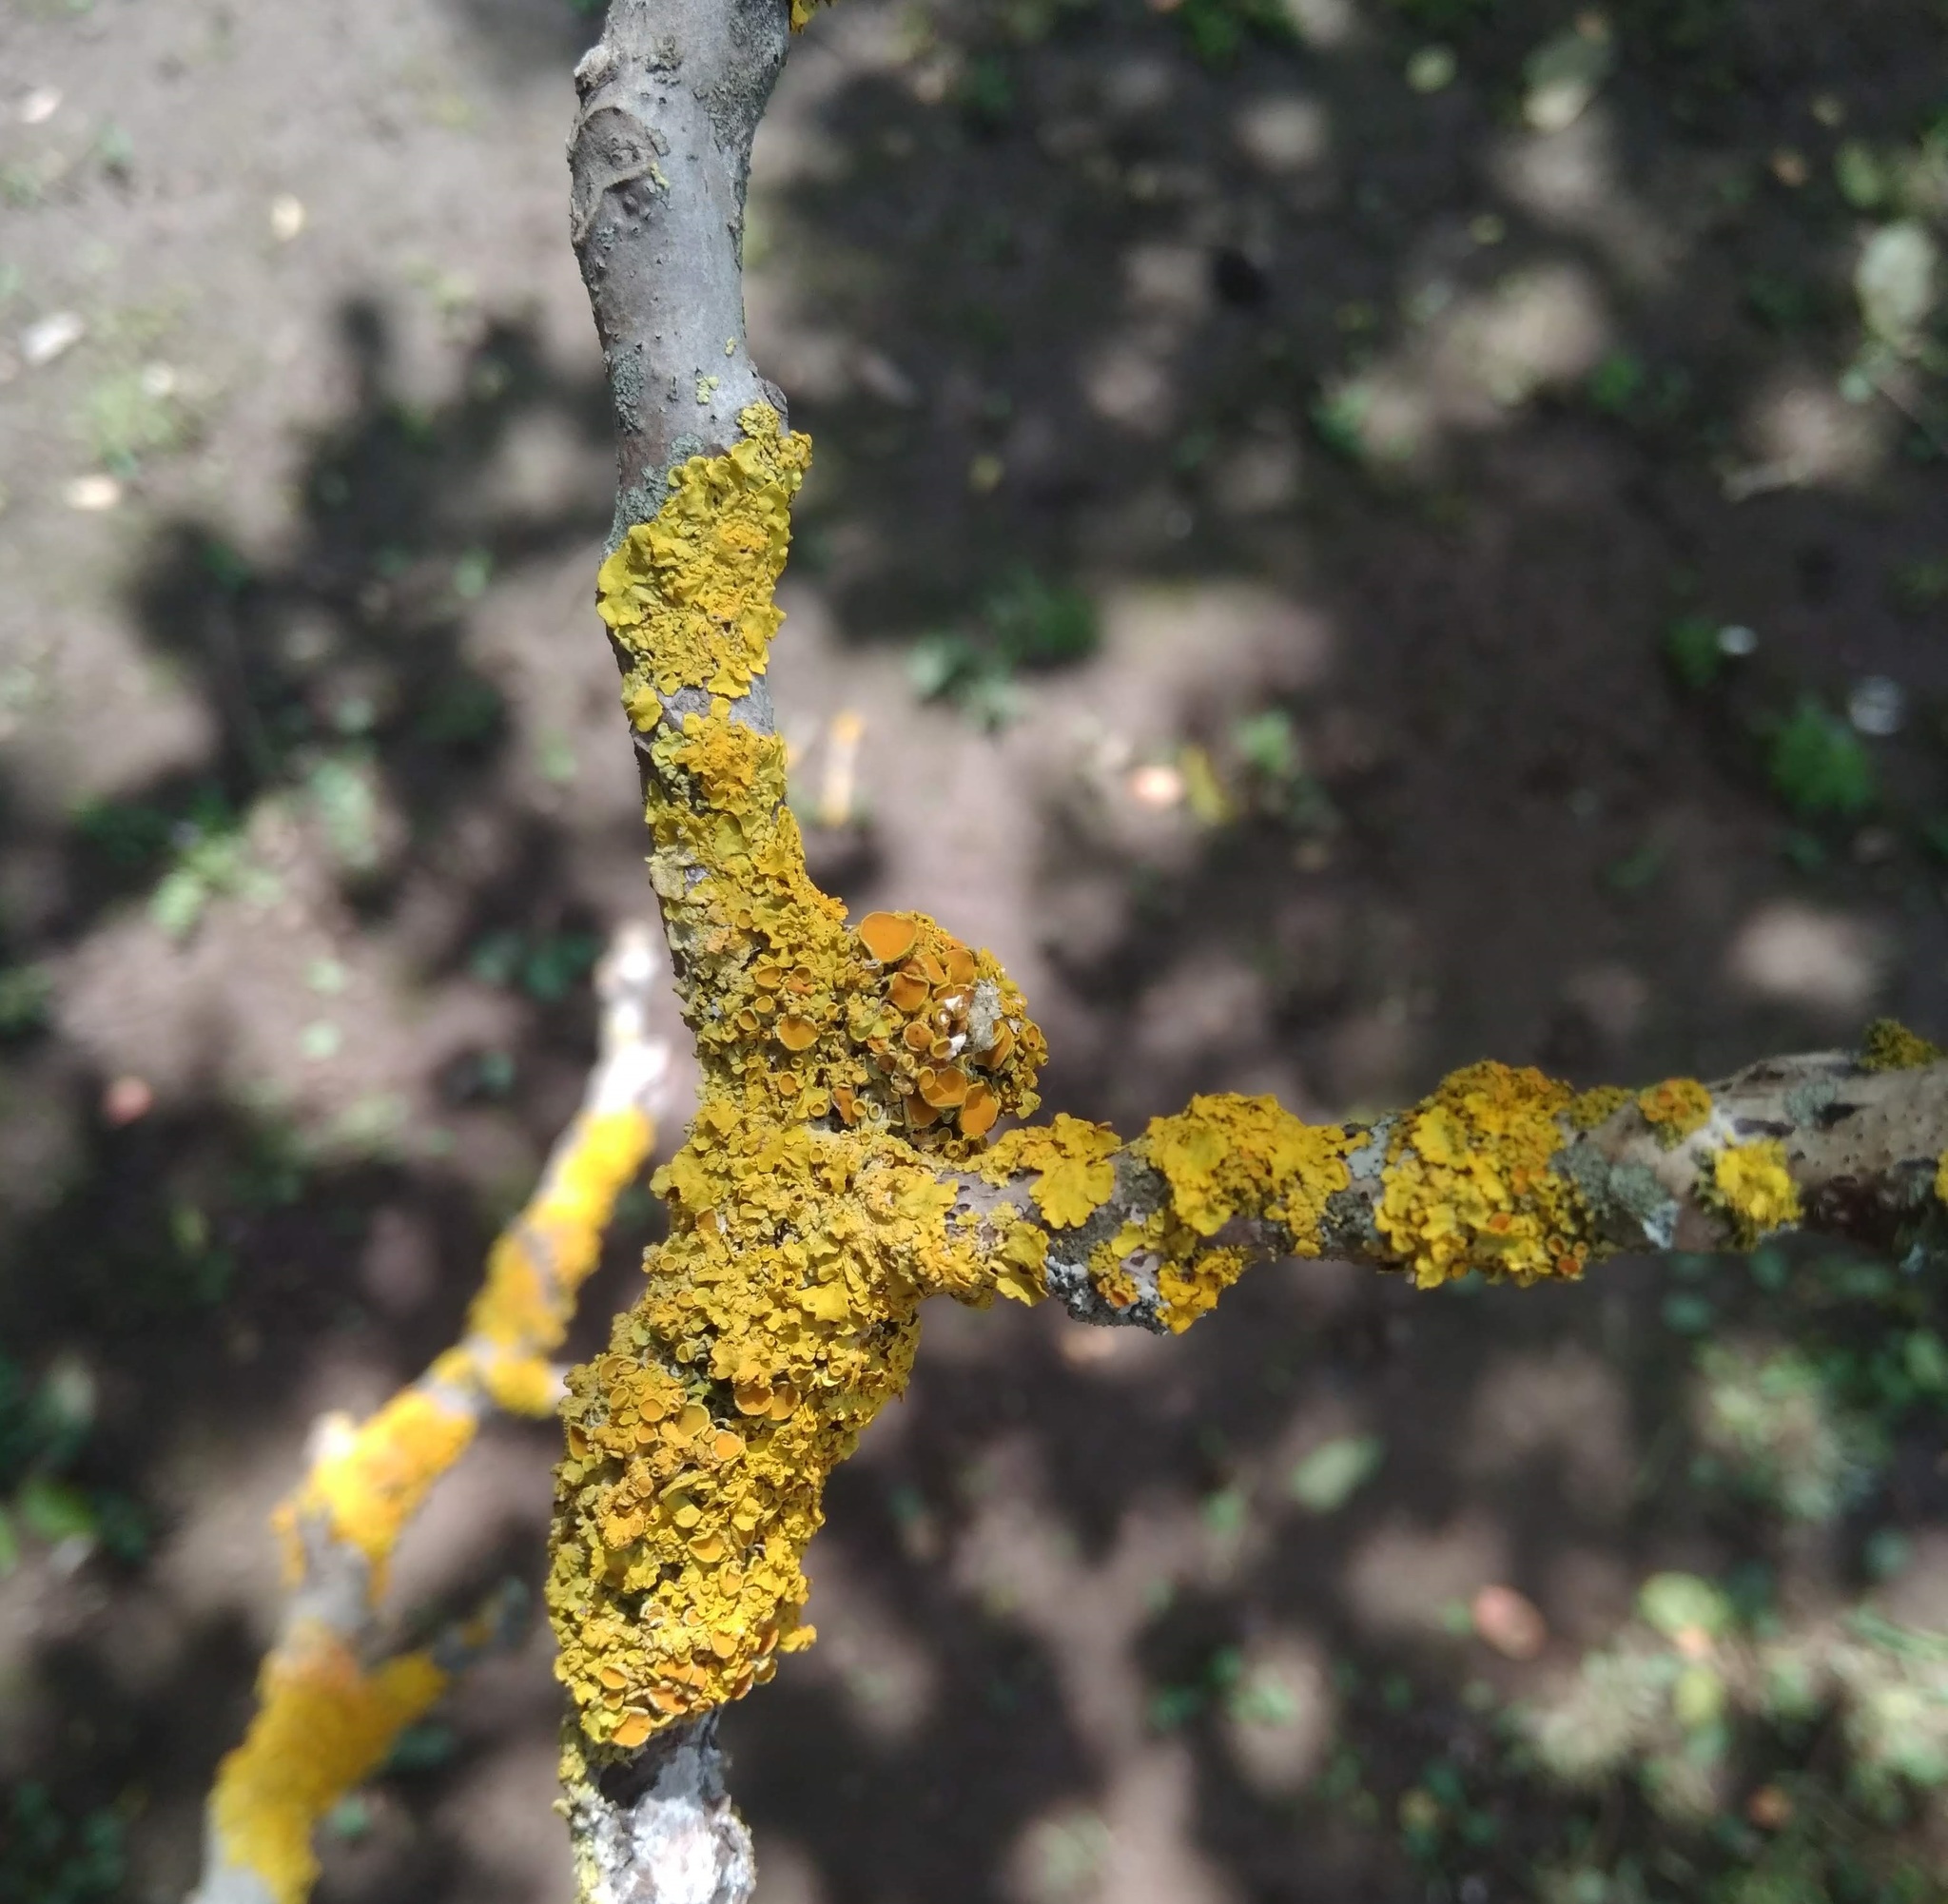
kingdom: Fungi
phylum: Ascomycota
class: Lecanoromycetes
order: Teloschistales
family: Teloschistaceae
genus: Xanthoria
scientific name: Xanthoria parietina
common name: Common orange lichen
